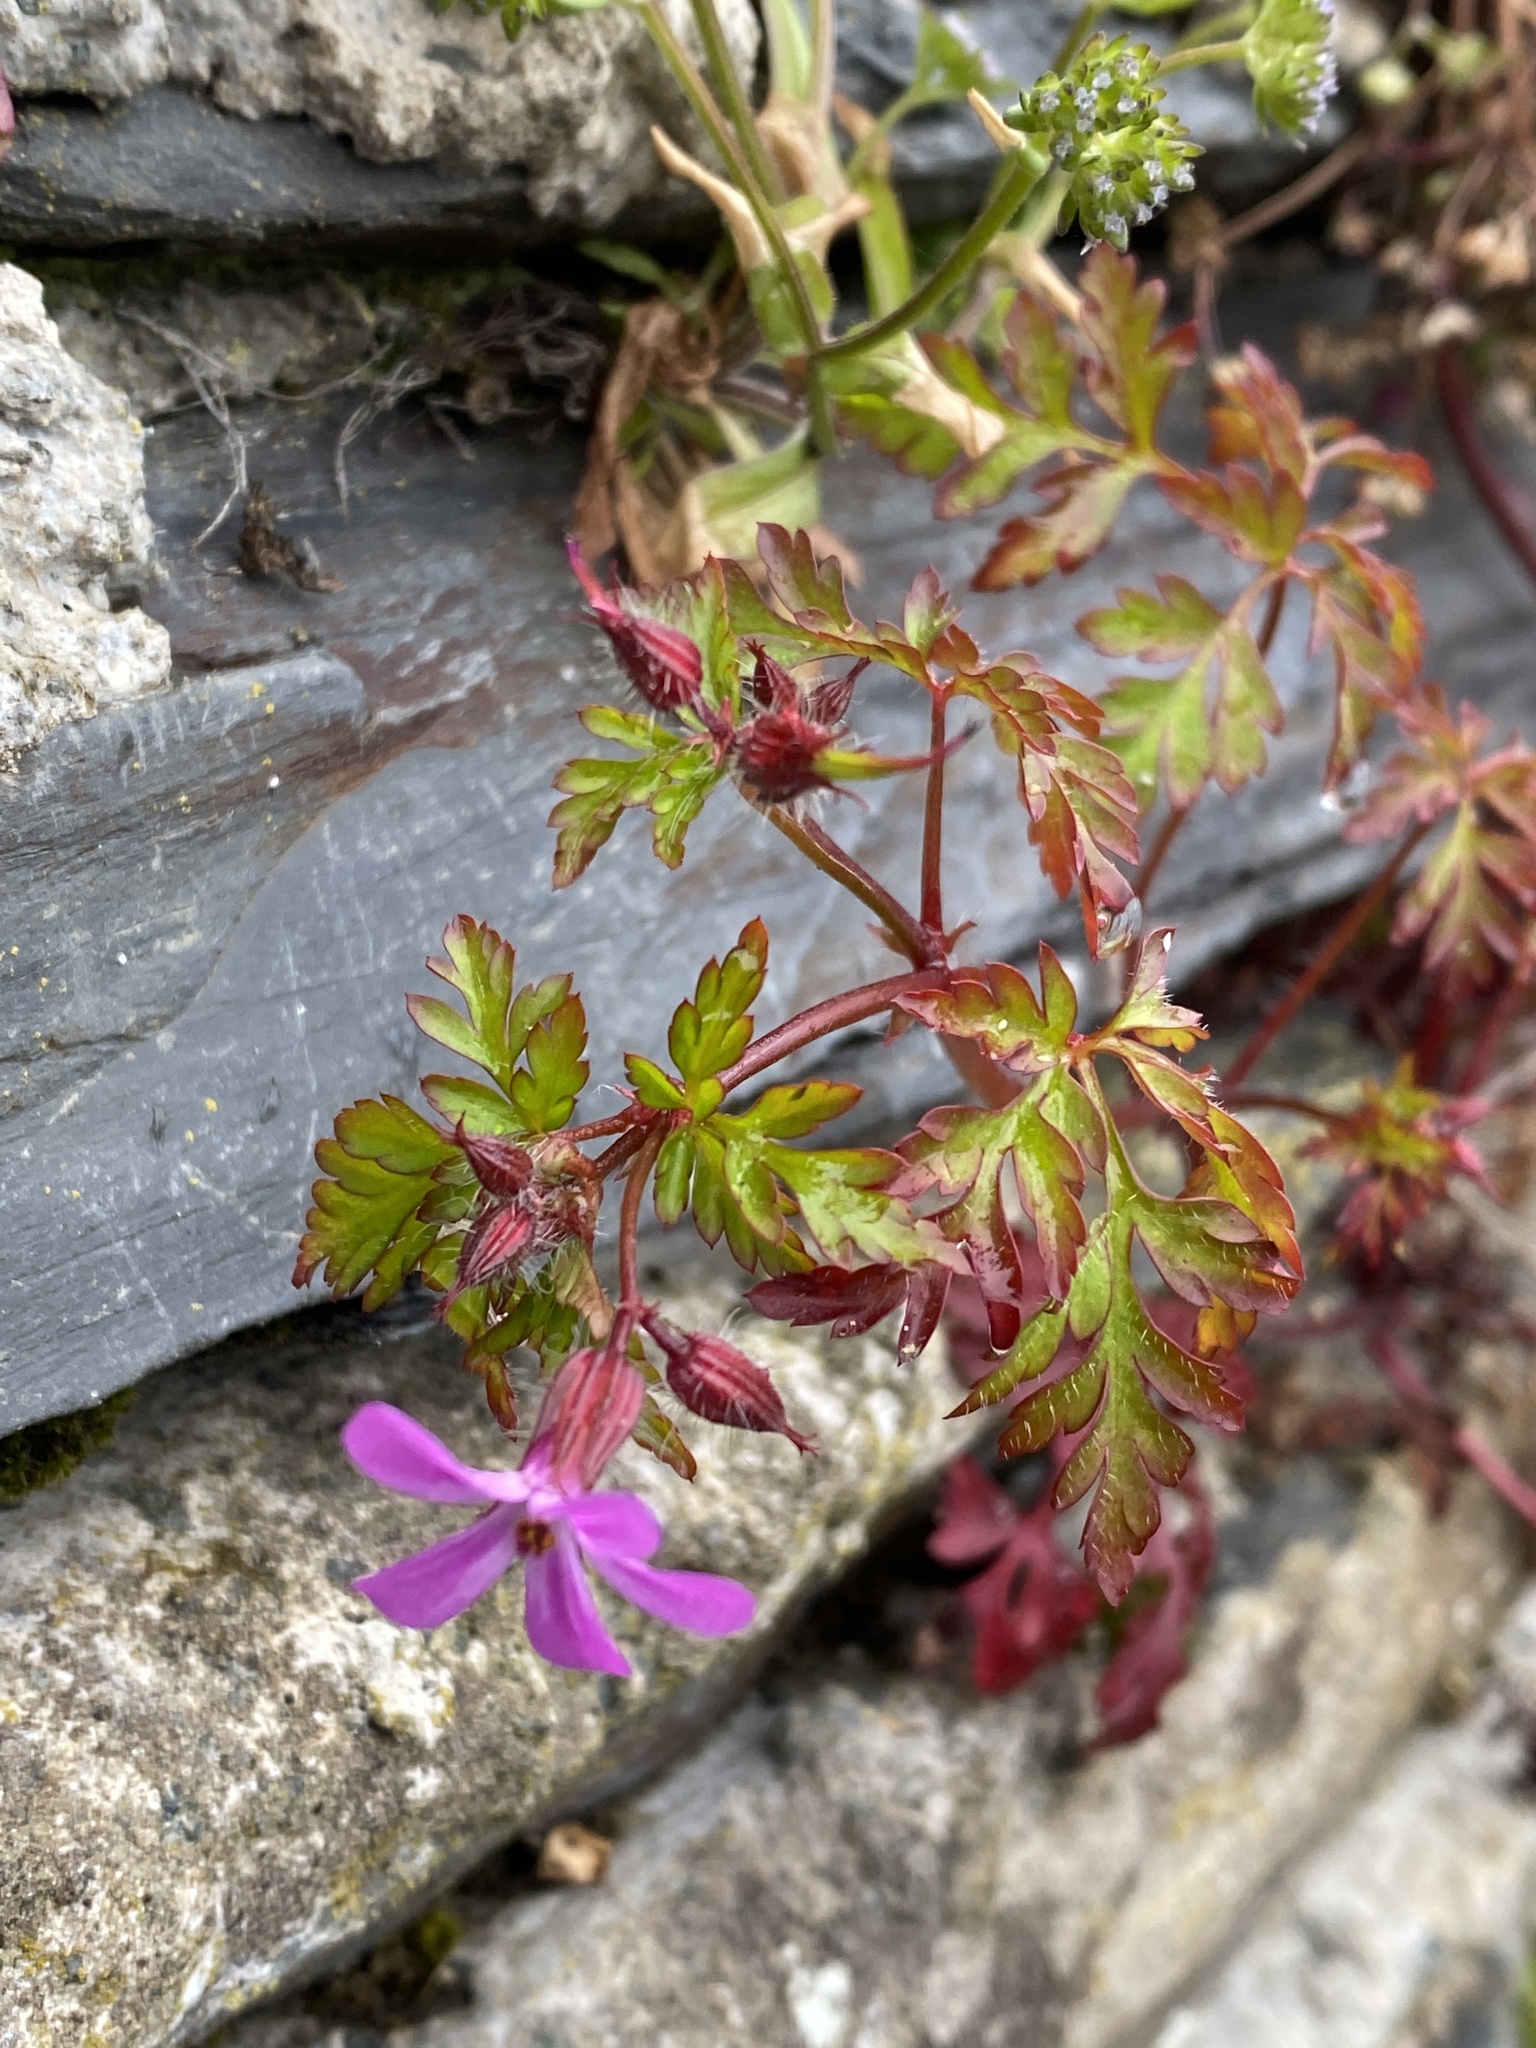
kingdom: Plantae
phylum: Tracheophyta
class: Magnoliopsida
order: Geraniales
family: Geraniaceae
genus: Geranium
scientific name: Geranium robertianum
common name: Herb-robert
